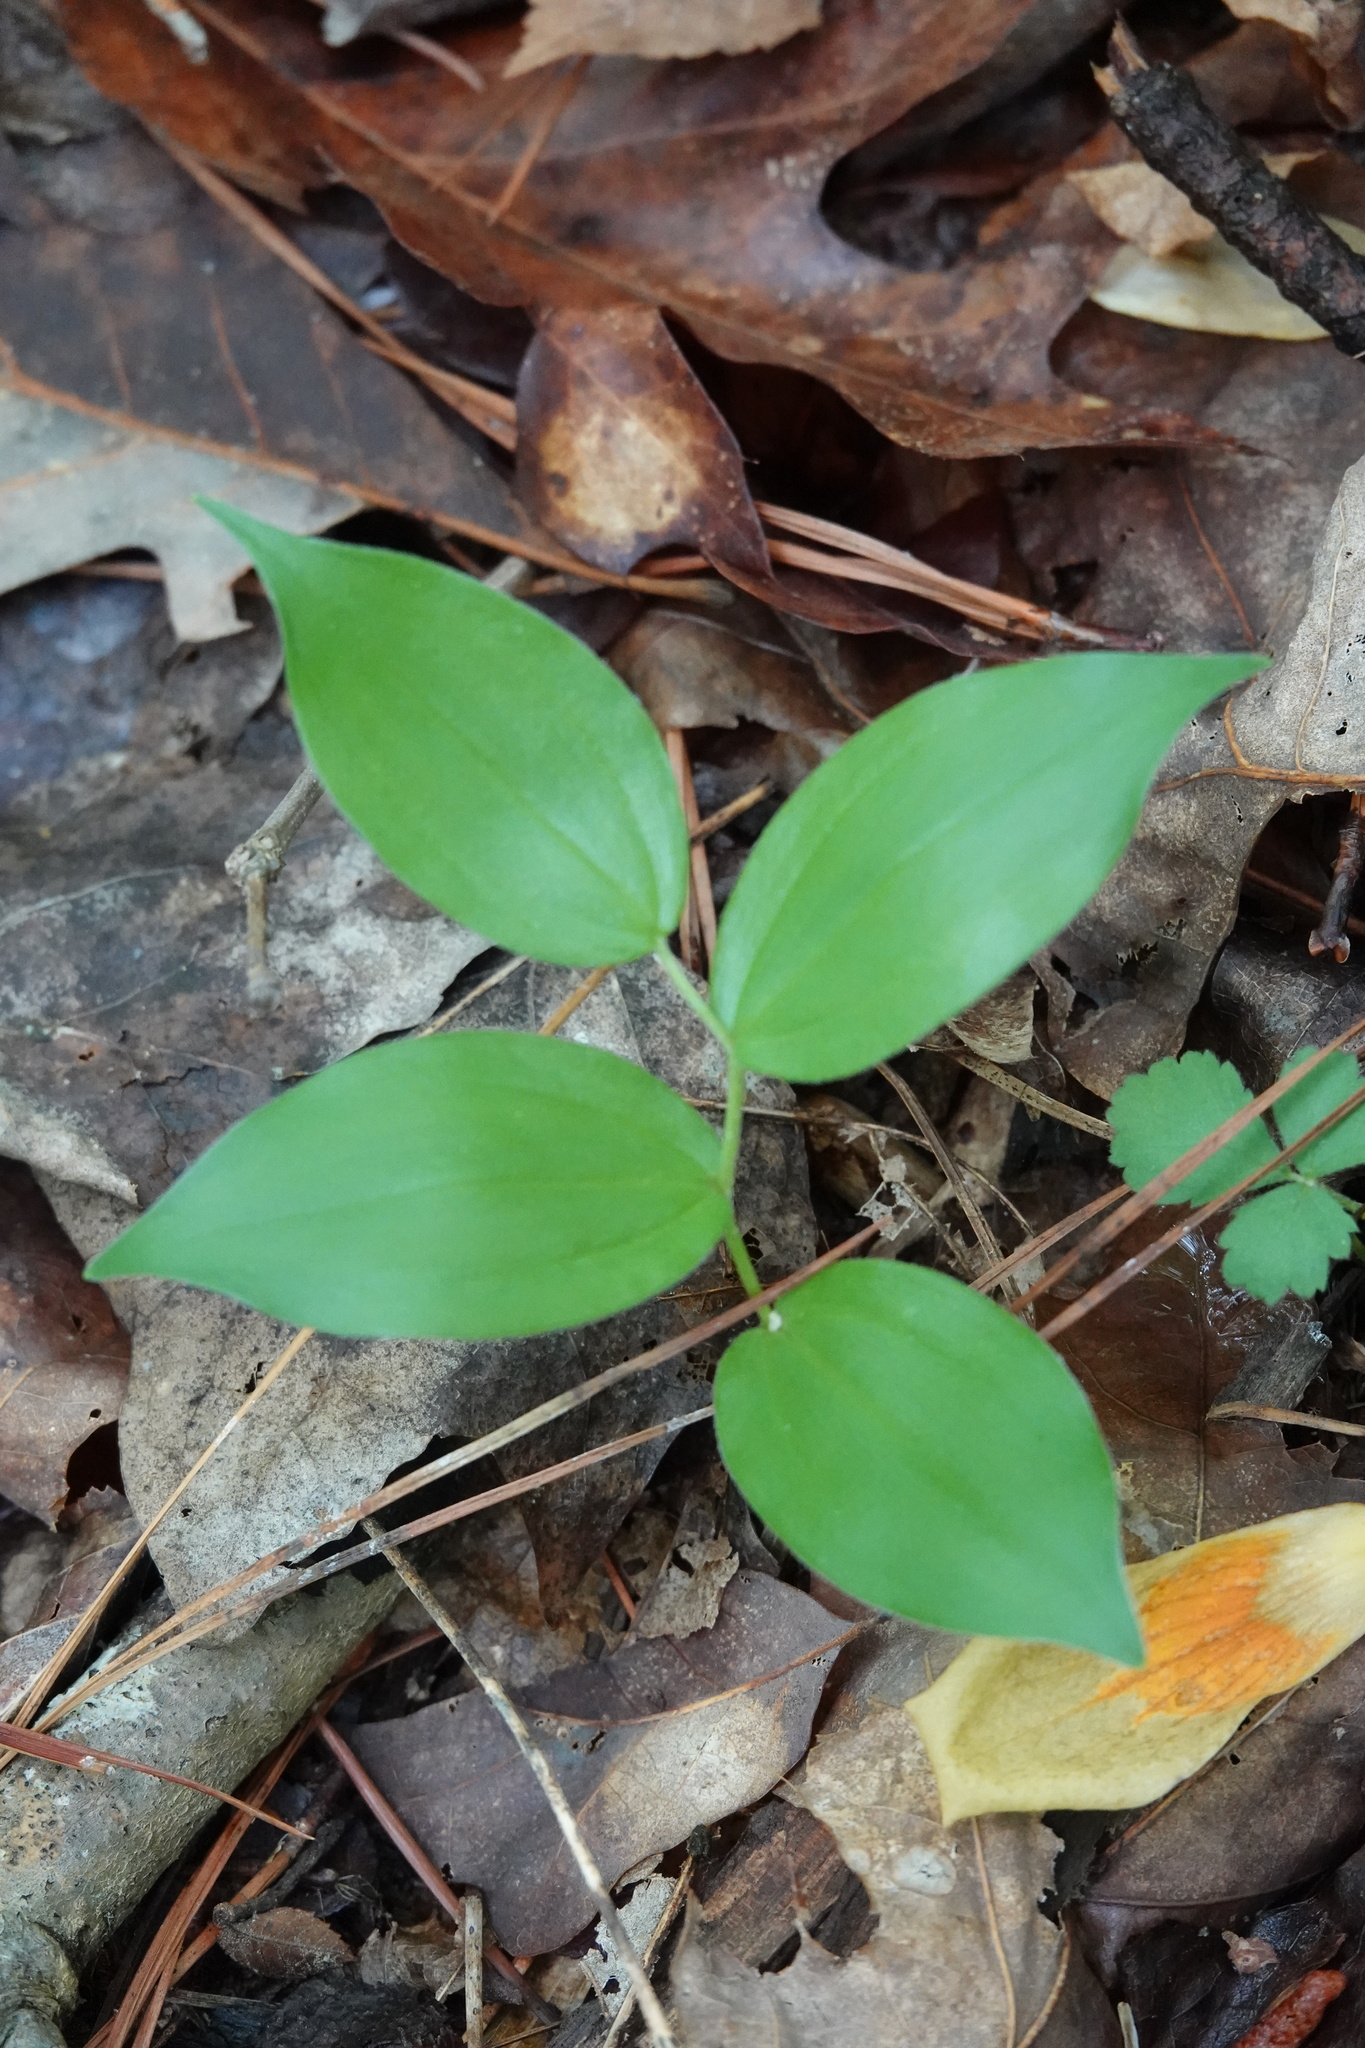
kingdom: Plantae
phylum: Tracheophyta
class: Liliopsida
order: Asparagales
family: Asparagaceae
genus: Maianthemum
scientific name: Maianthemum racemosum
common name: False spikenard
